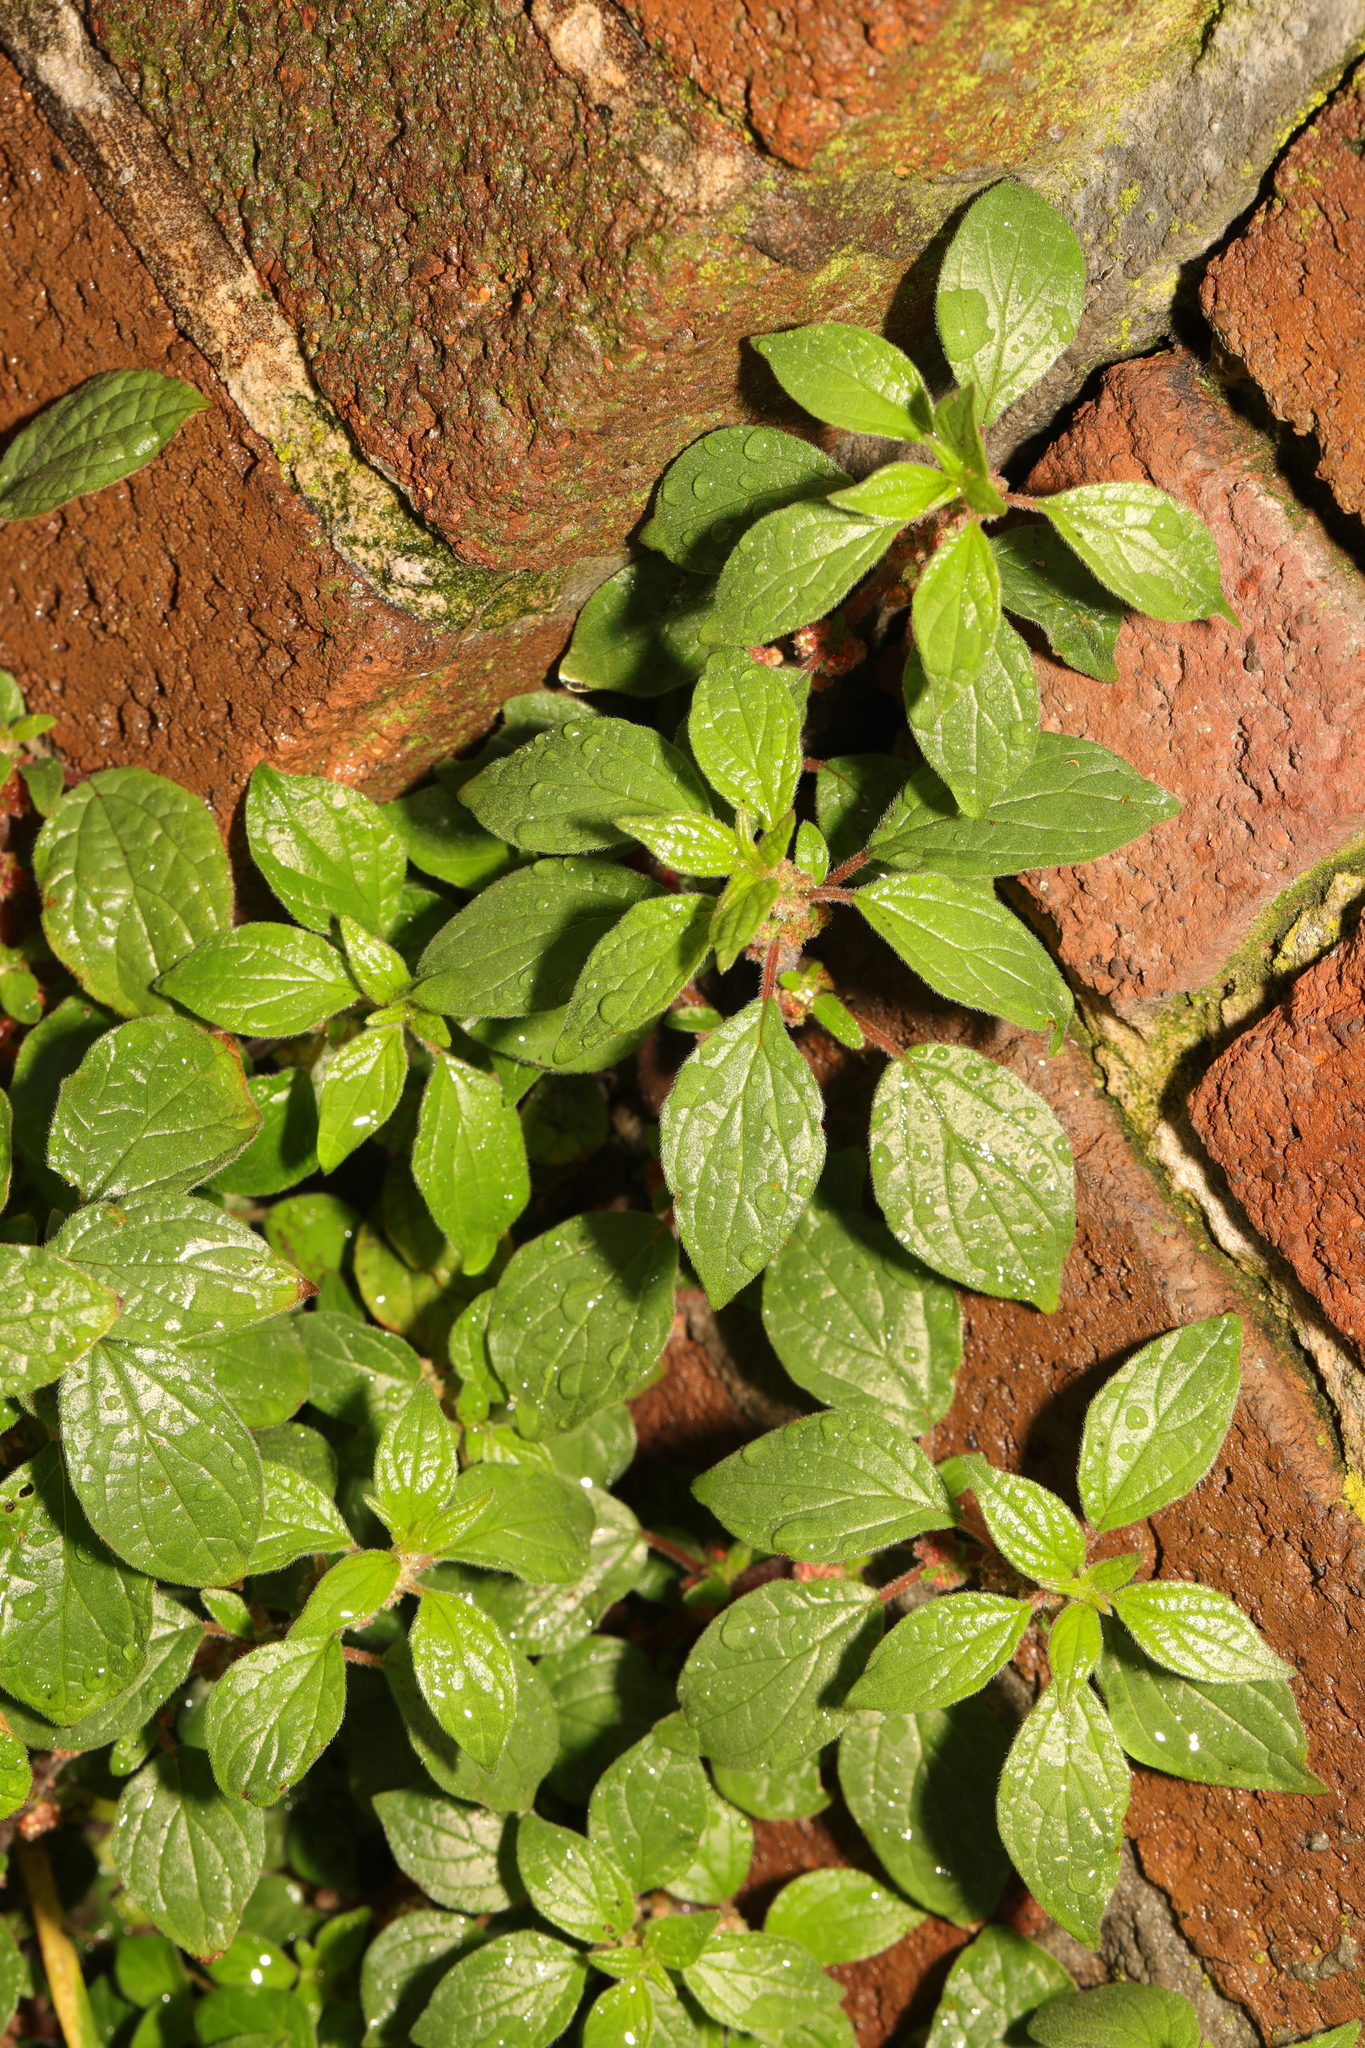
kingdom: Plantae
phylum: Tracheophyta
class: Magnoliopsida
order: Rosales
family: Urticaceae
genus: Parietaria
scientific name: Parietaria judaica
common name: Pellitory-of-the-wall
